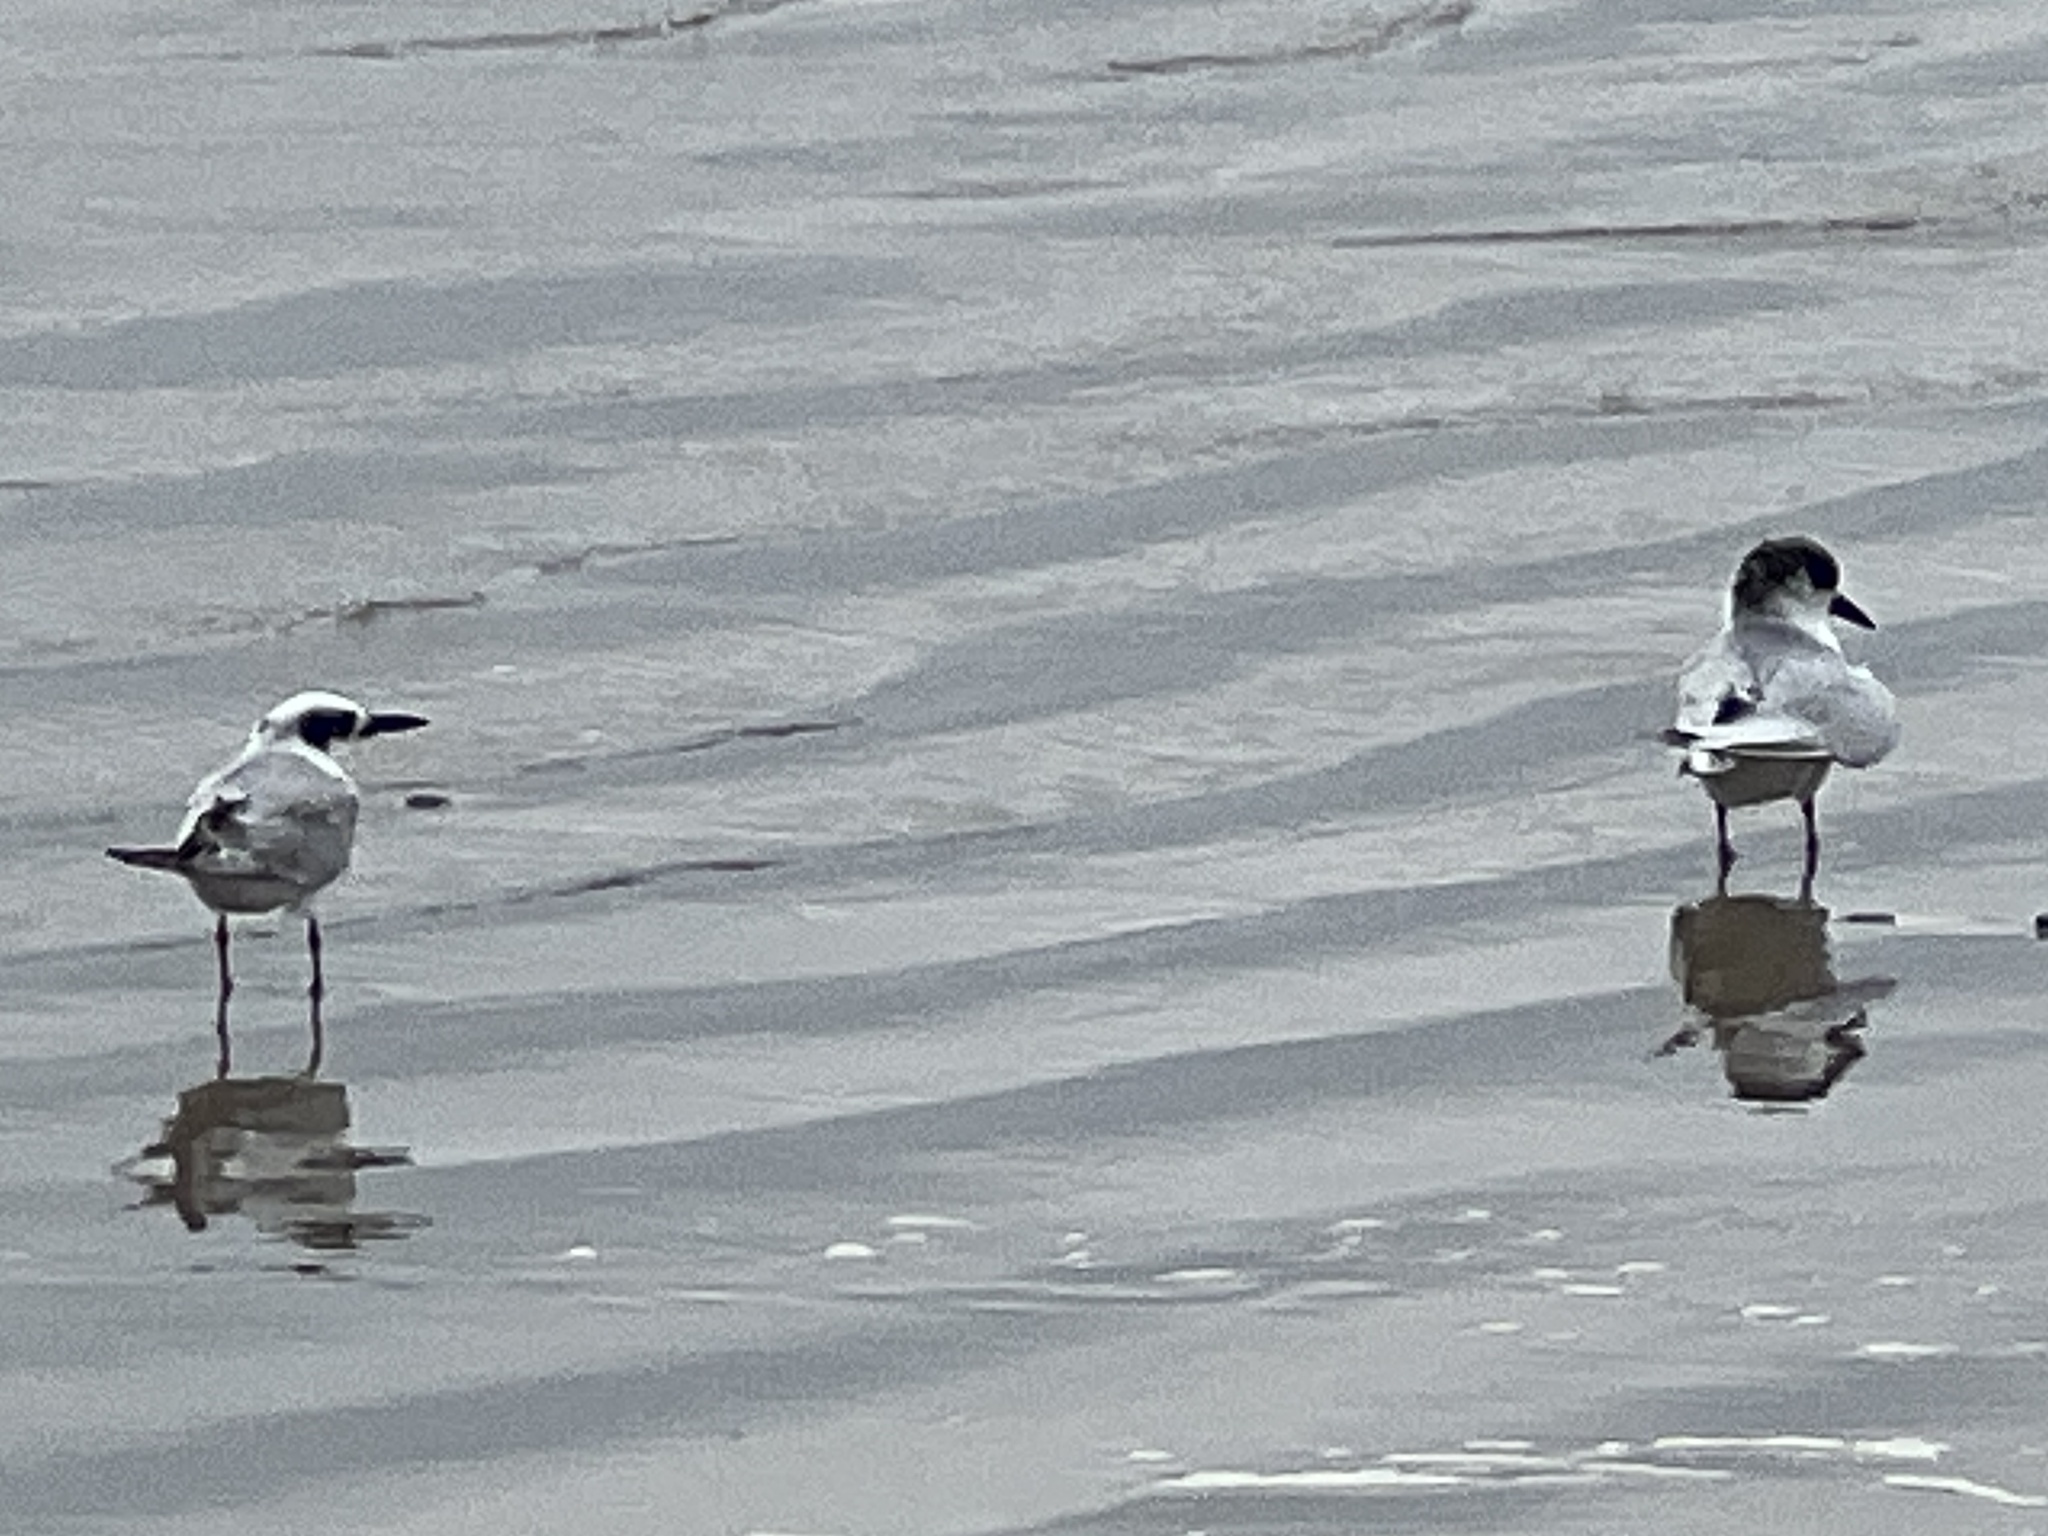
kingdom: Animalia
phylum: Chordata
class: Aves
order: Charadriiformes
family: Laridae
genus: Sterna
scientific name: Sterna forsteri
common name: Forster's tern
